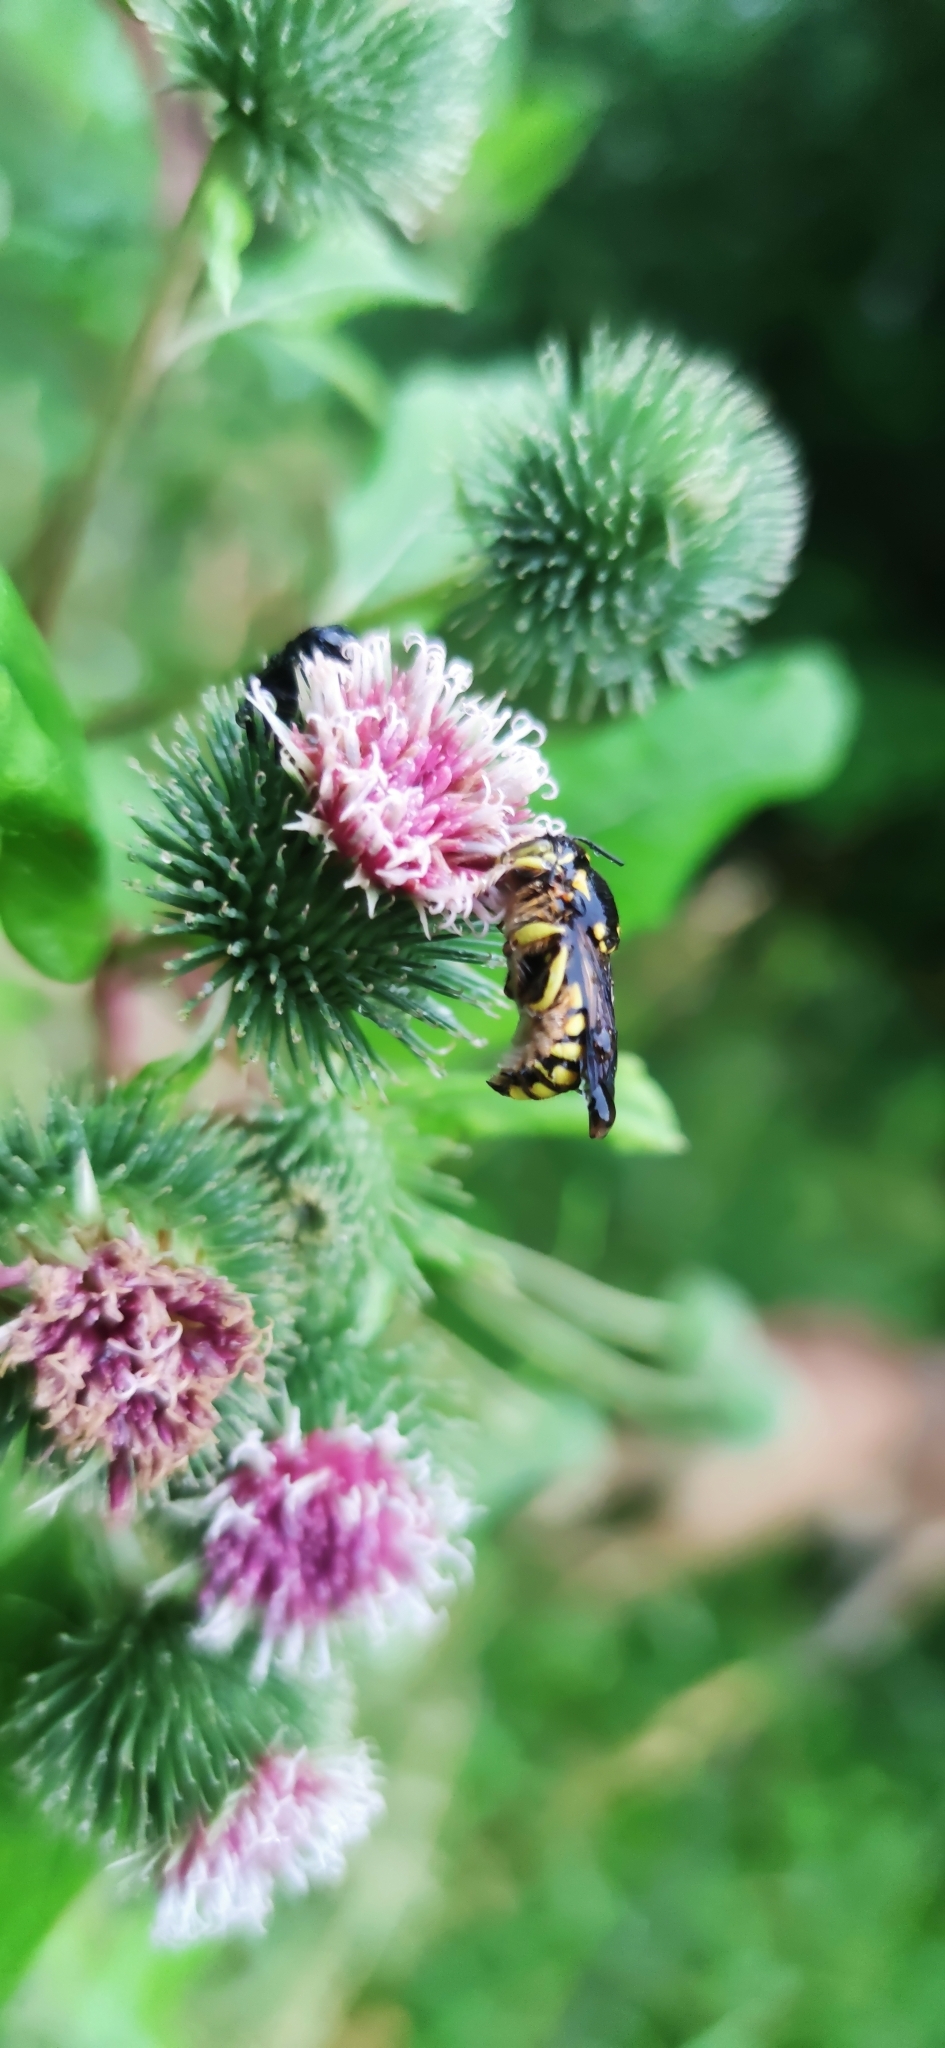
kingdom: Animalia
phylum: Arthropoda
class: Insecta
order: Hymenoptera
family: Megachilidae
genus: Anthidium
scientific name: Anthidium florentinum
